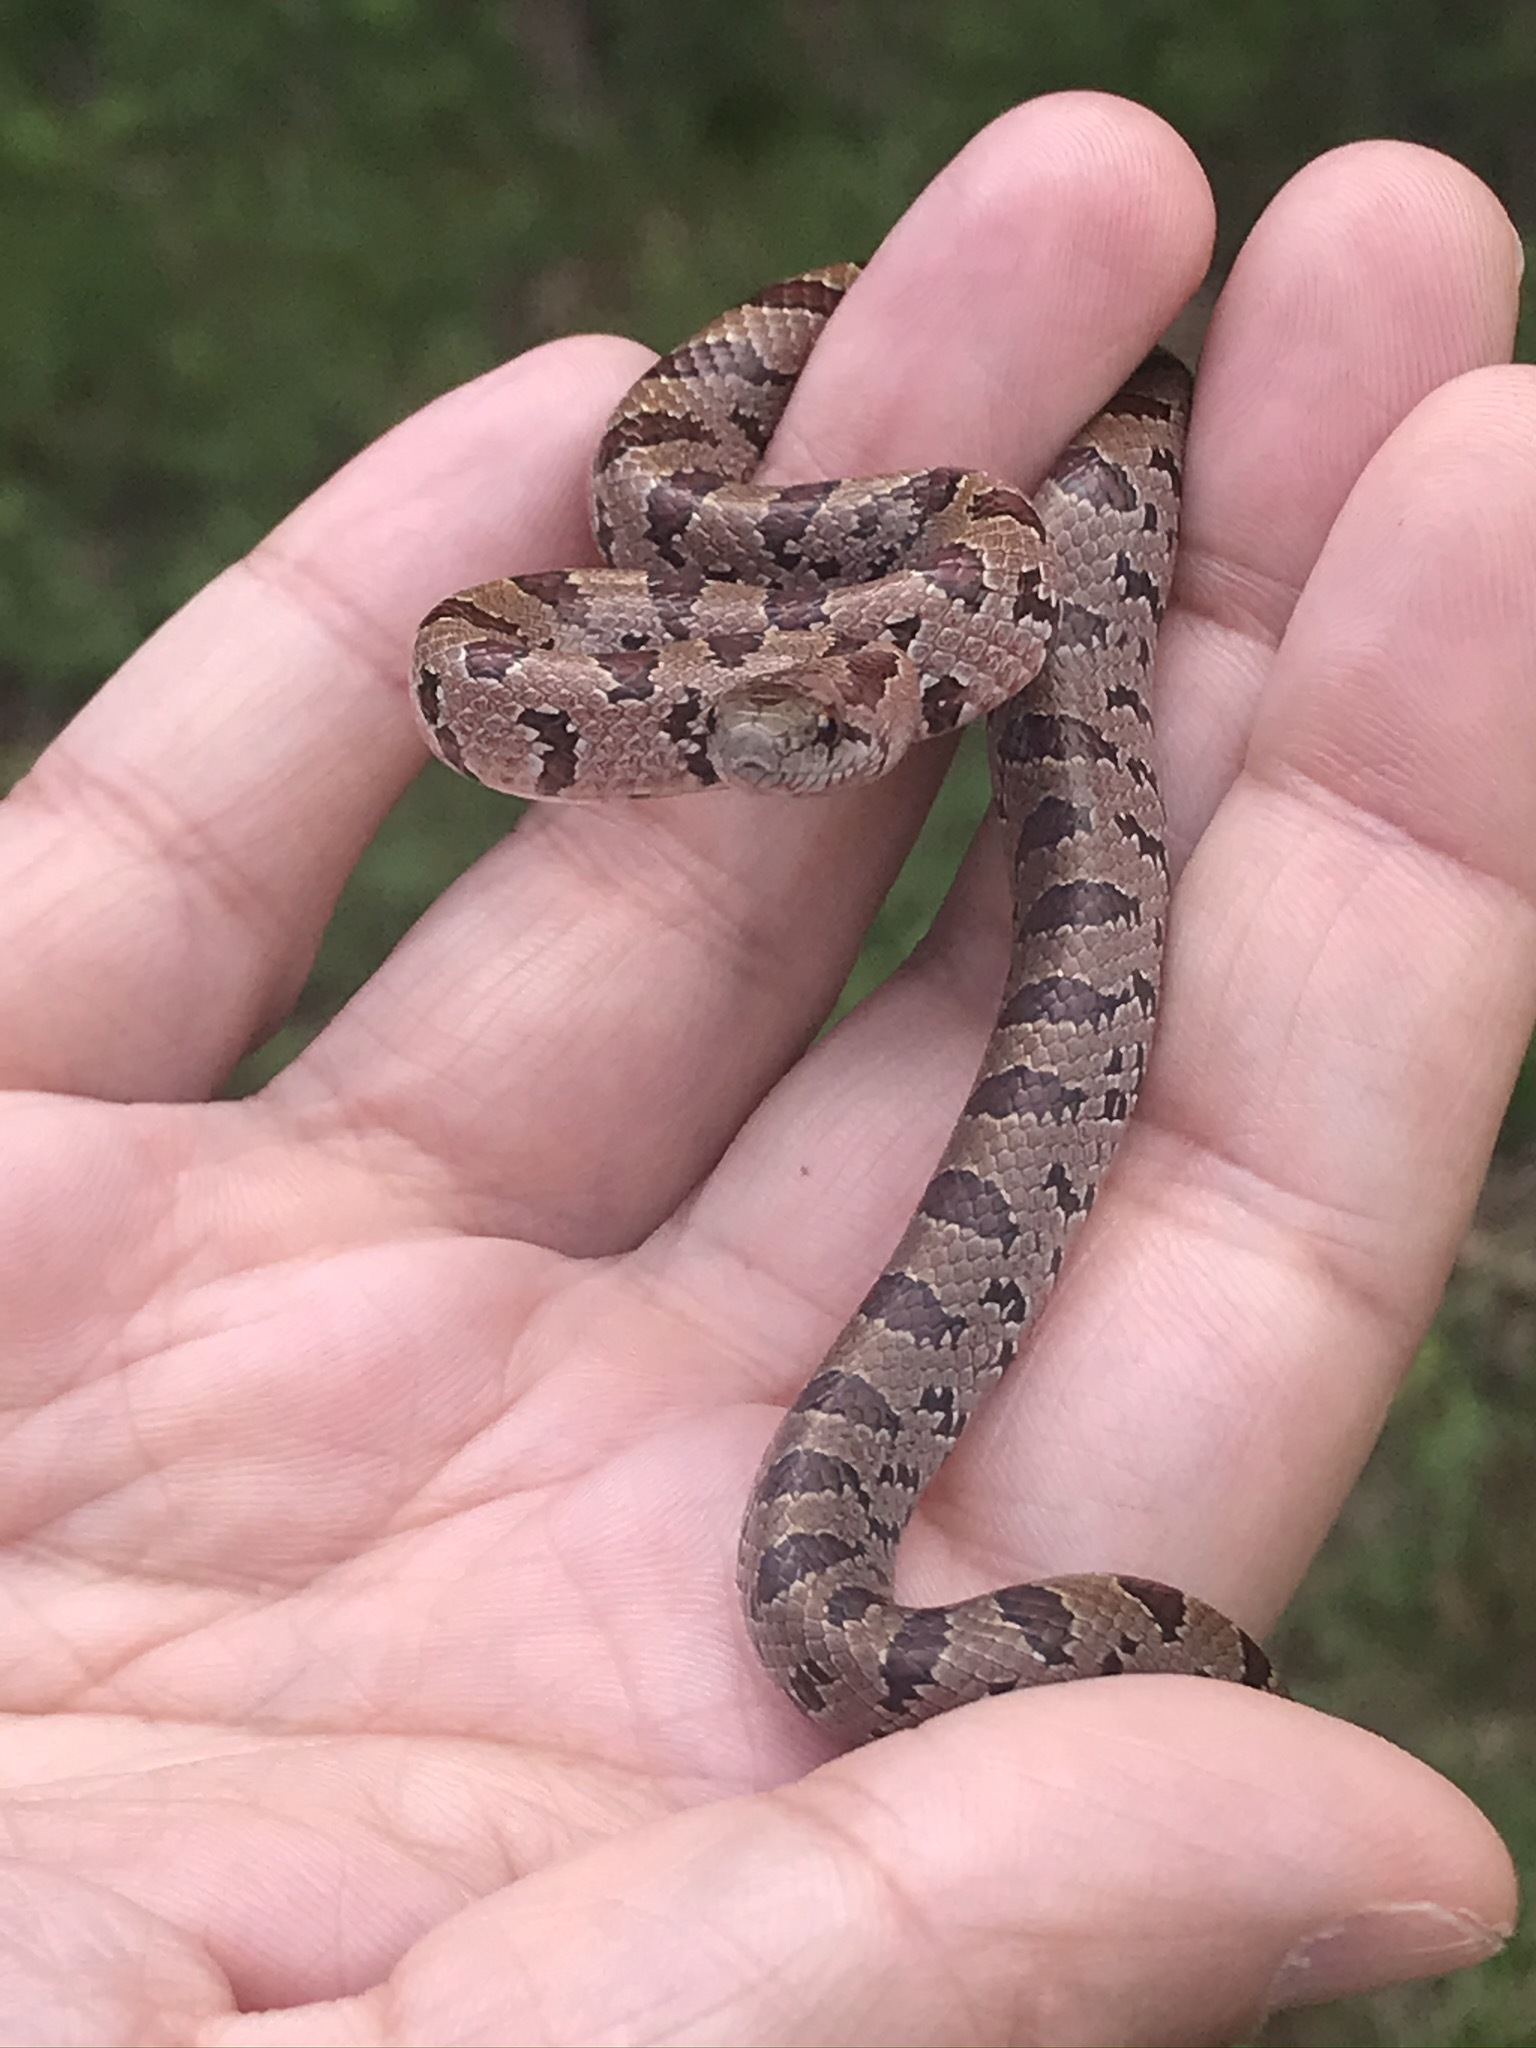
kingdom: Animalia
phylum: Chordata
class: Squamata
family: Colubridae
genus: Lampropeltis
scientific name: Lampropeltis rhombomaculata
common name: Mole kingsnake
